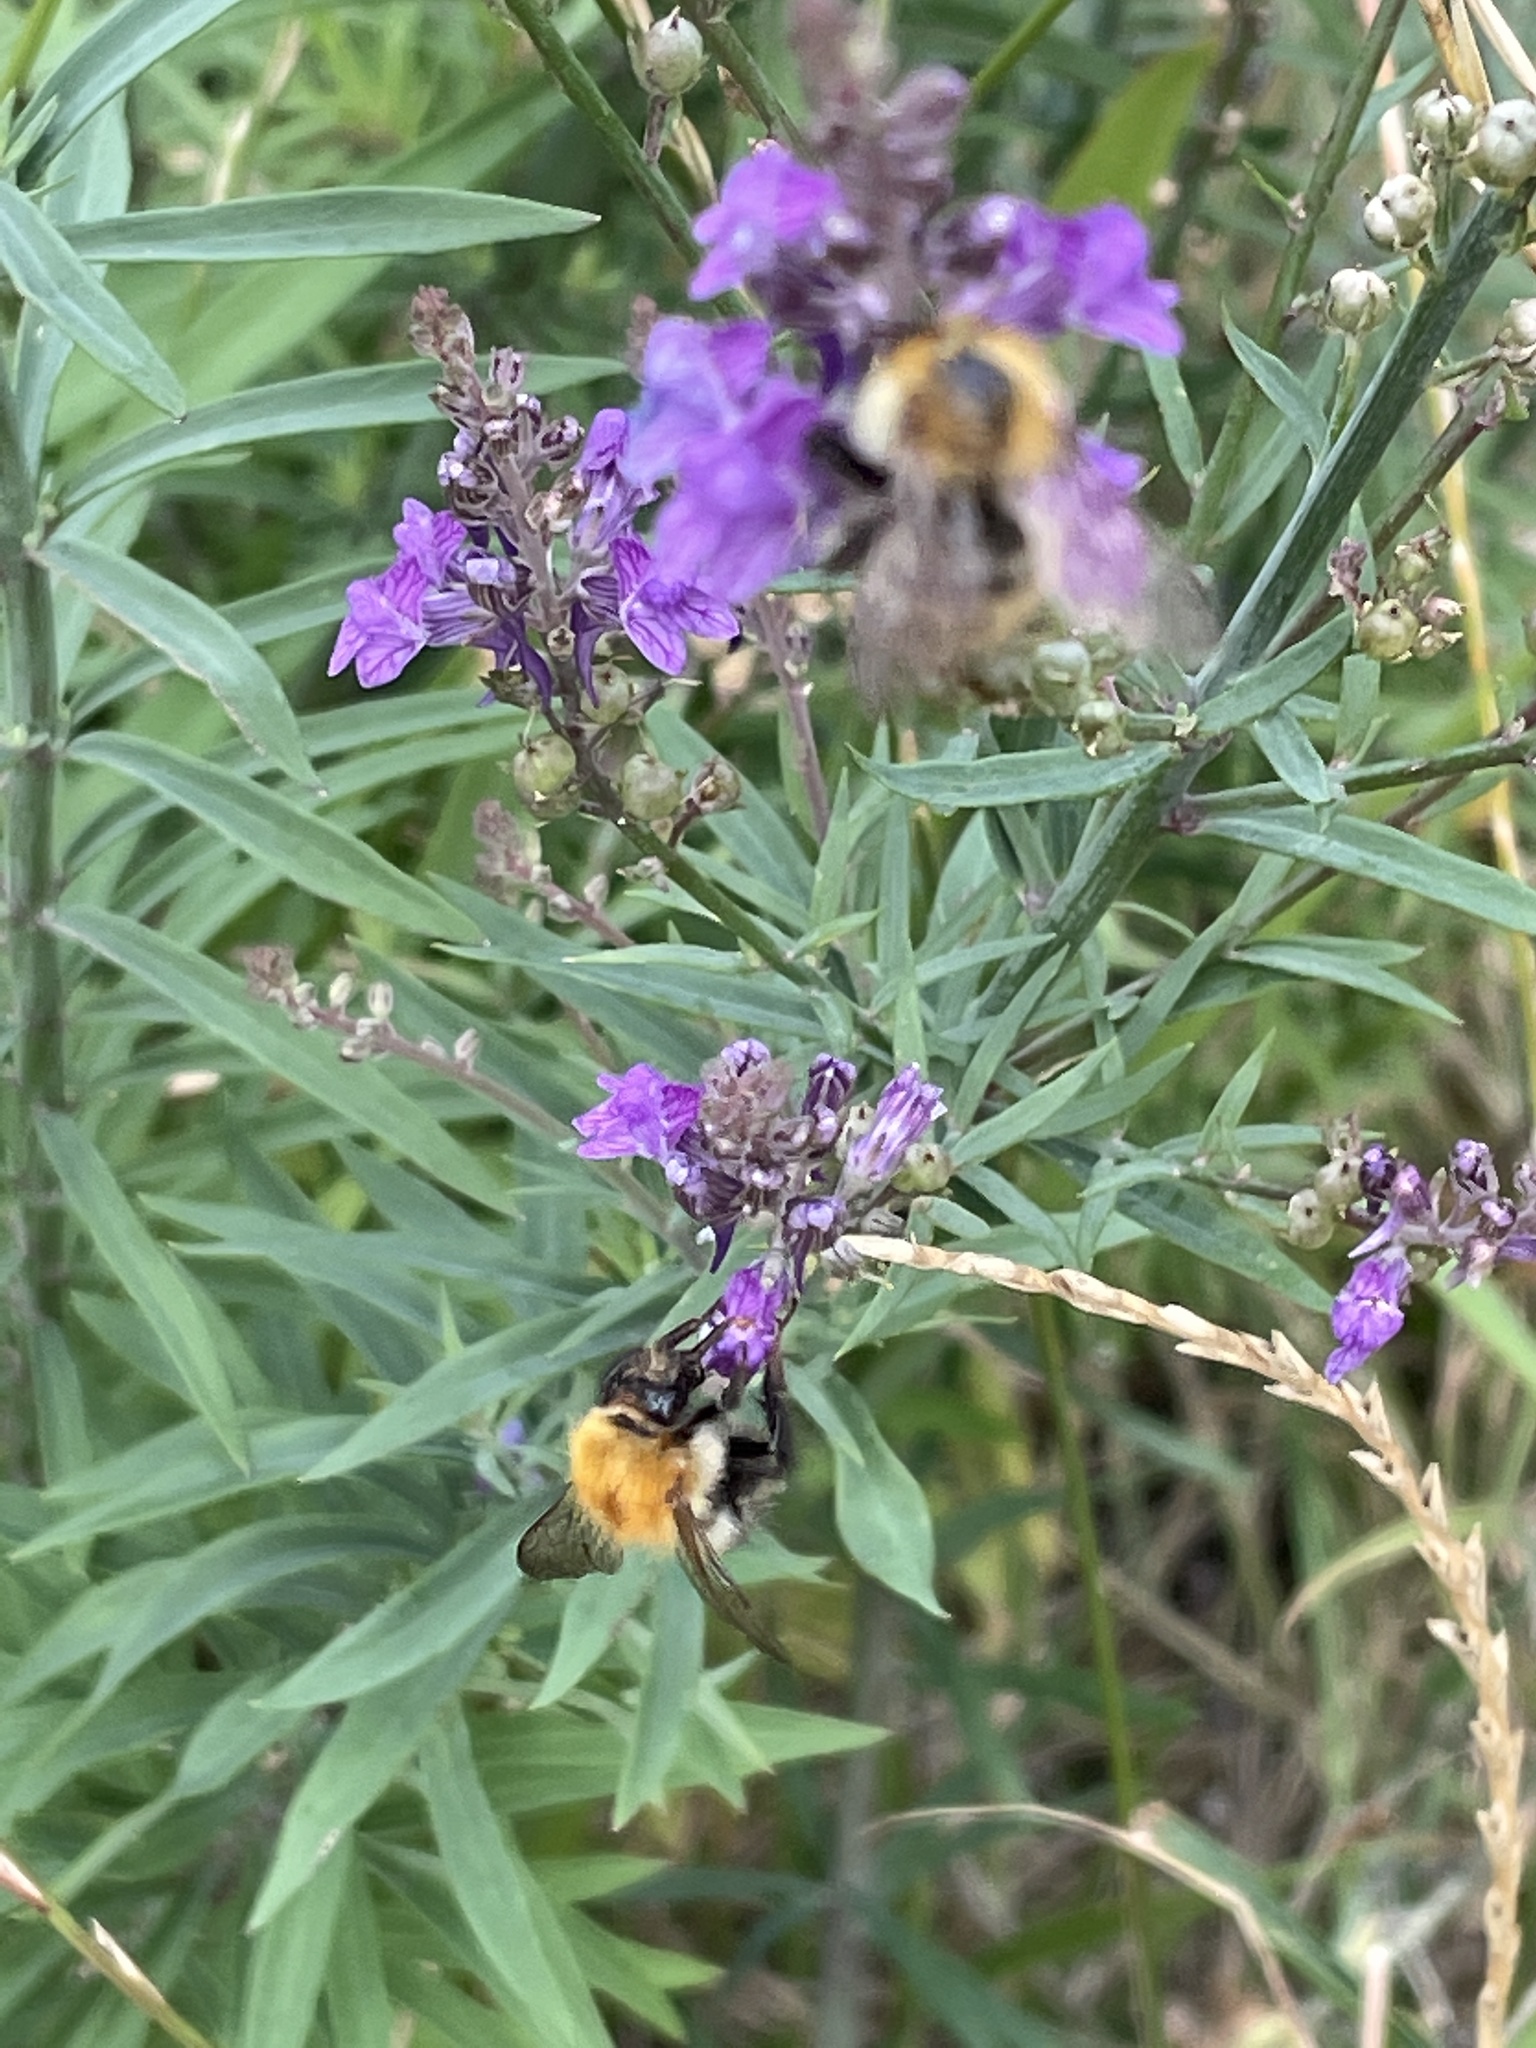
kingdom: Animalia
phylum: Arthropoda
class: Insecta
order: Hymenoptera
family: Apidae
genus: Bombus
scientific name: Bombus pascuorum
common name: Common carder bee
